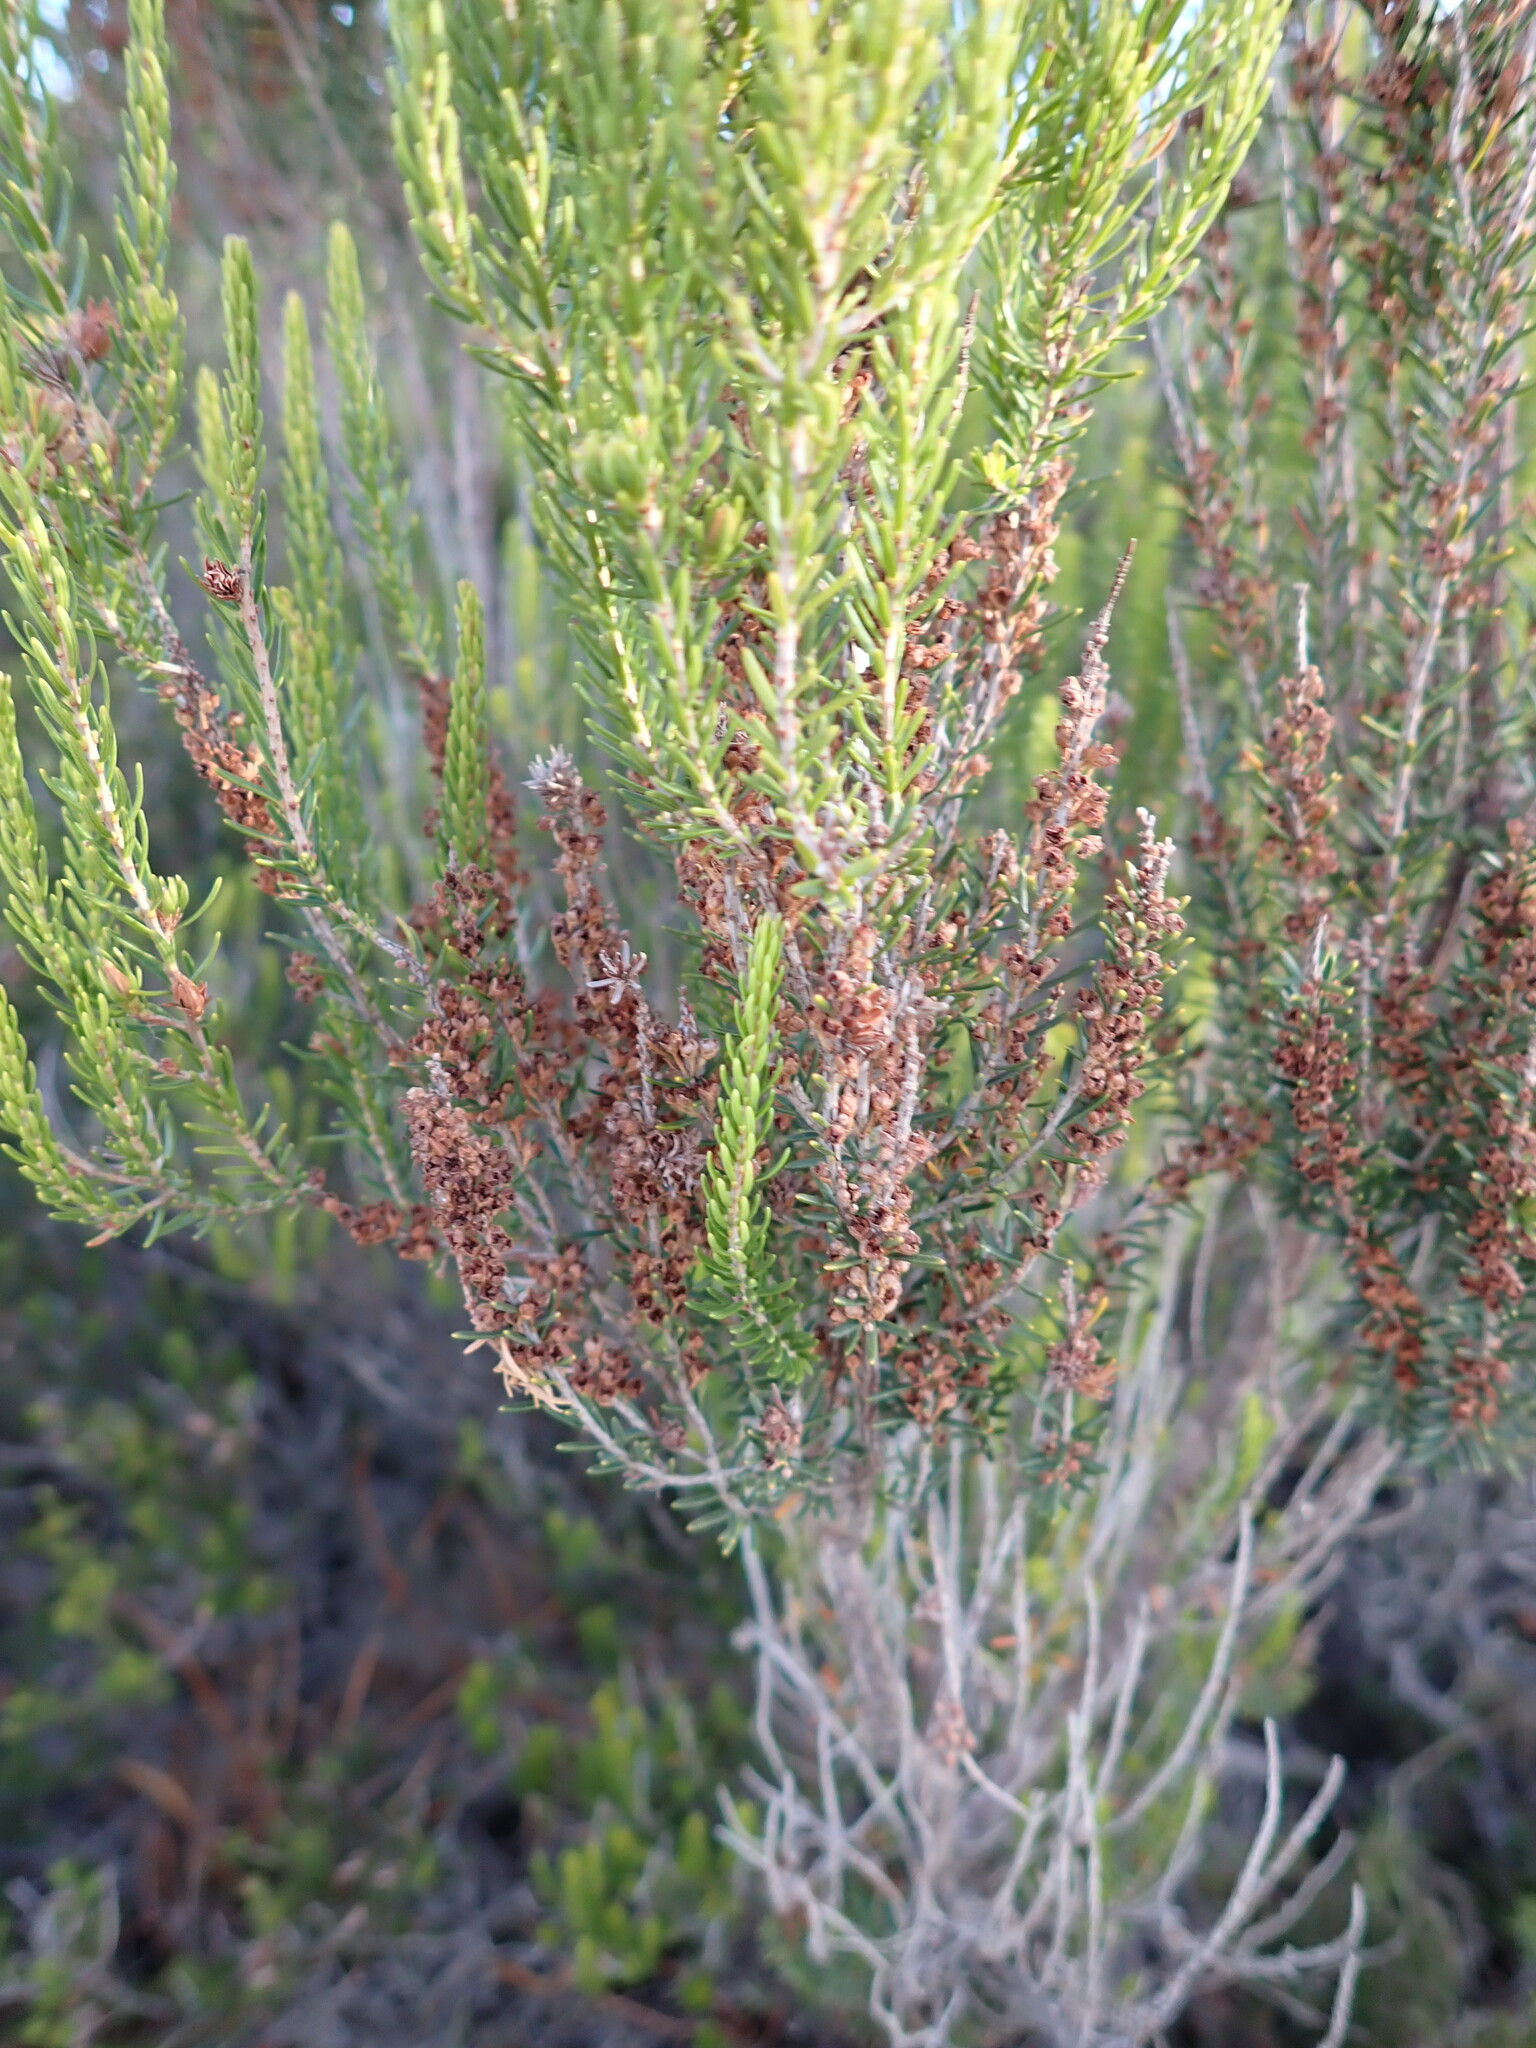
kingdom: Plantae
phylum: Tracheophyta
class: Magnoliopsida
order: Ericales
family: Ericaceae
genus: Erica
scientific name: Erica scoparia
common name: Green heather
